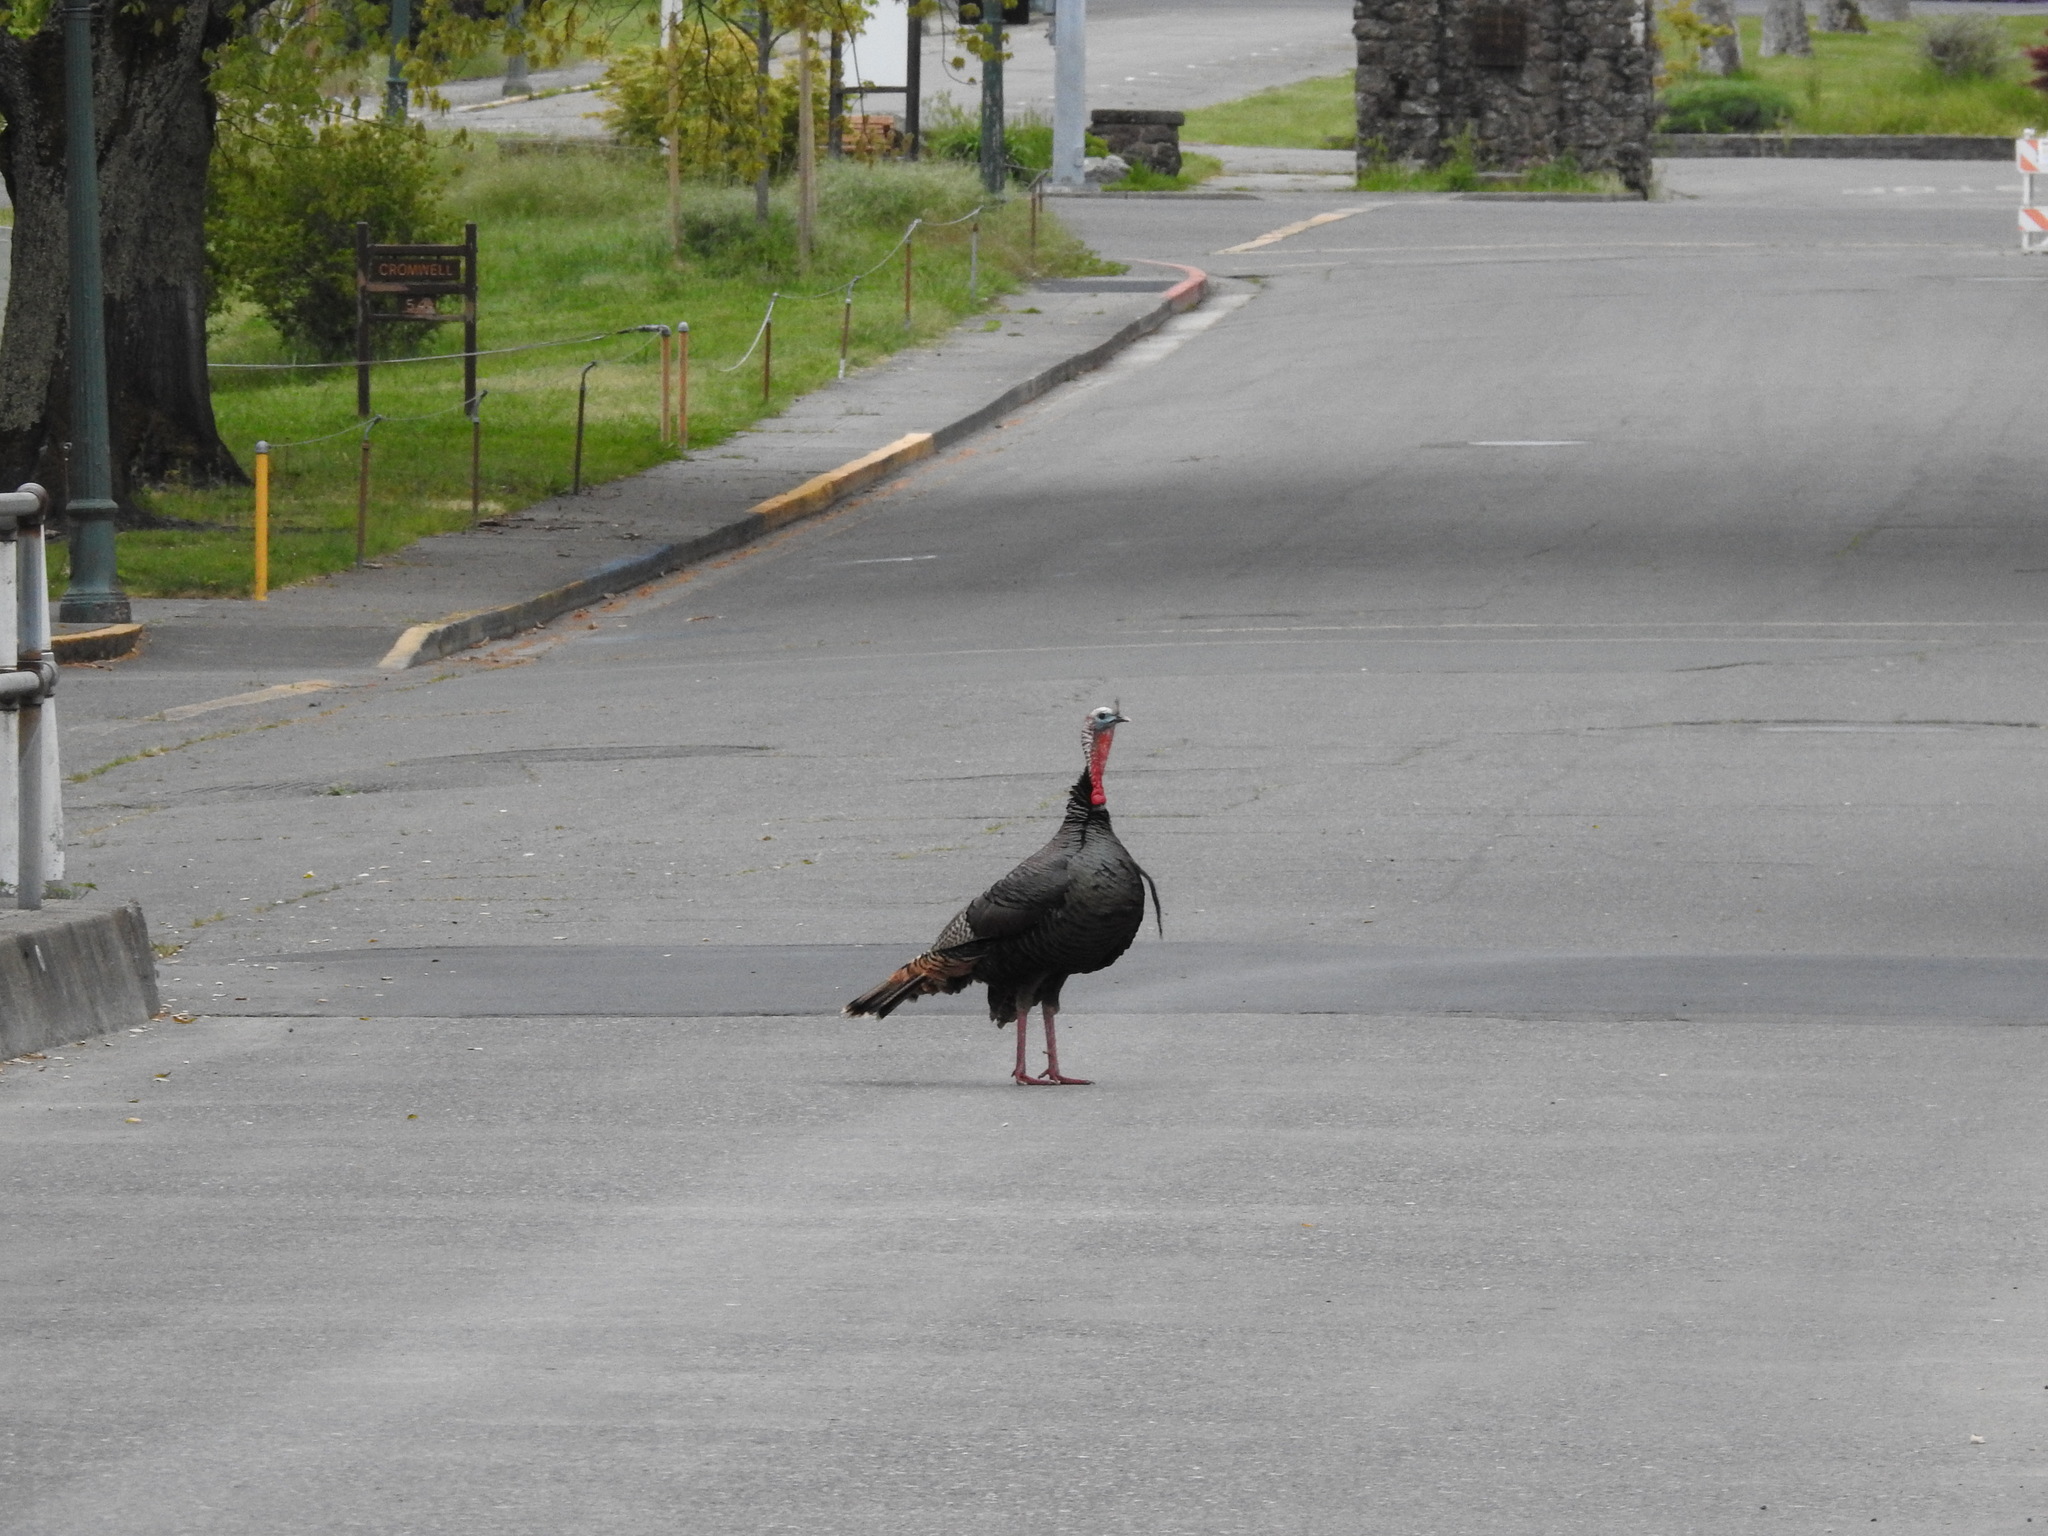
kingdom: Animalia
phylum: Chordata
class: Aves
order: Galliformes
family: Phasianidae
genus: Meleagris
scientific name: Meleagris gallopavo
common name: Wild turkey
